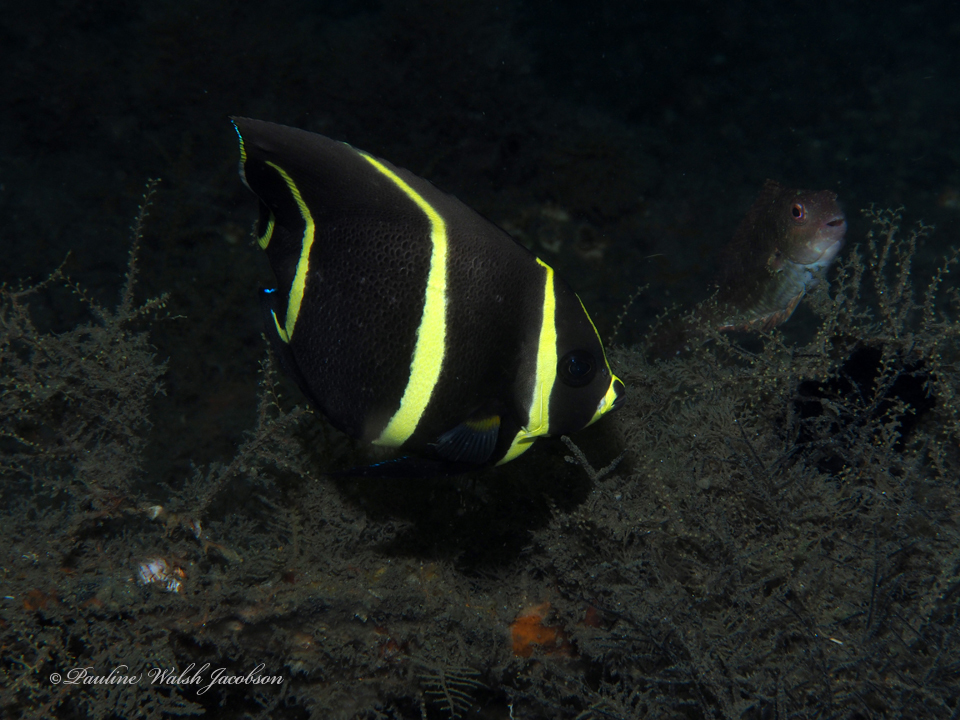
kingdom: Animalia
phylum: Chordata
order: Perciformes
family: Pomacanthidae
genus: Pomacanthus
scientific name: Pomacanthus arcuatus
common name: Gray angelfish
